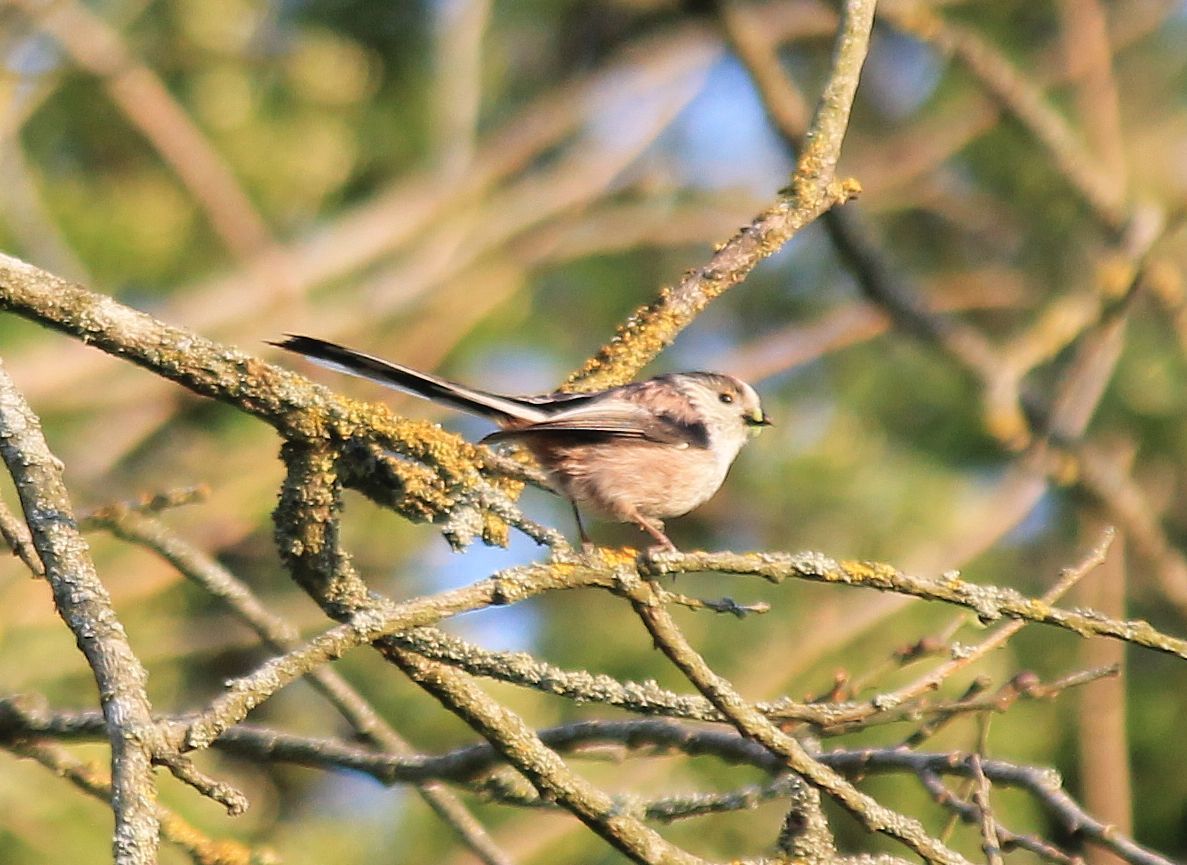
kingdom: Animalia
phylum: Chordata
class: Aves
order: Passeriformes
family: Aegithalidae
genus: Aegithalos
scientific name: Aegithalos caudatus
